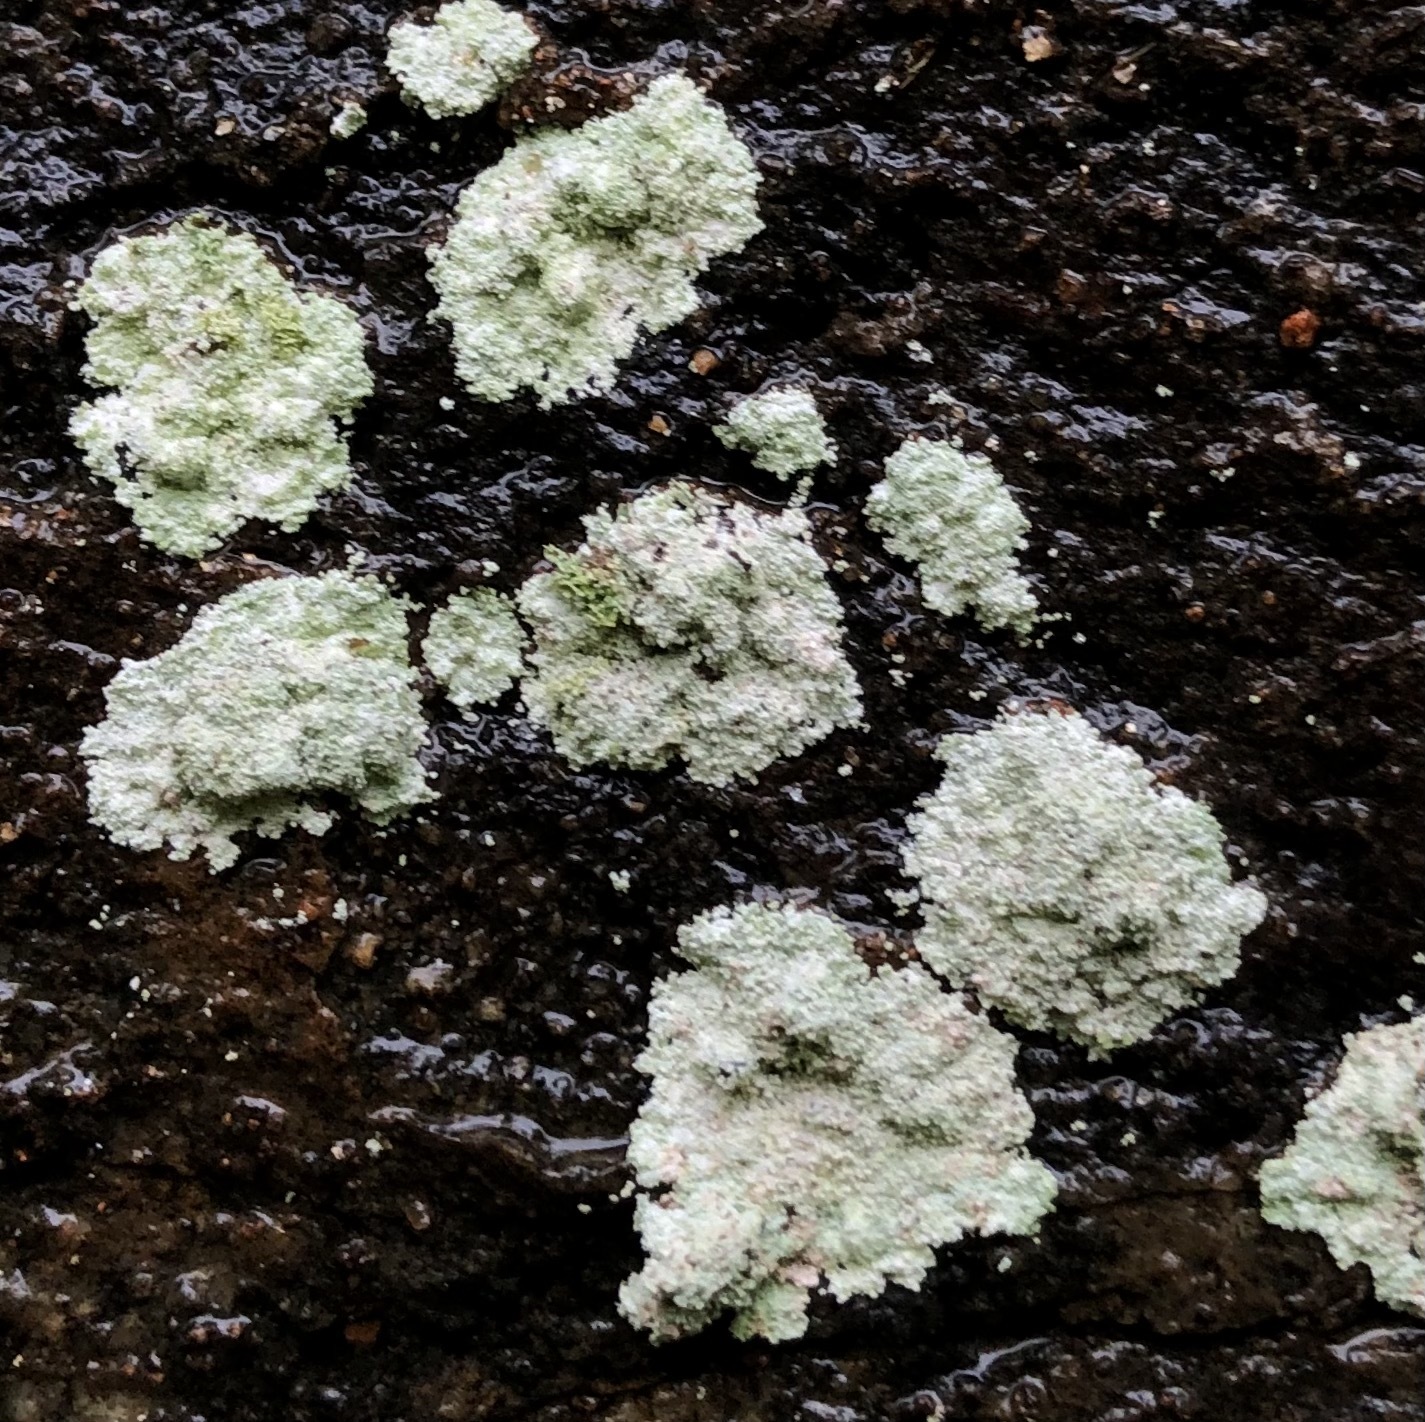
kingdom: Fungi
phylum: Ascomycota
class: Lecanoromycetes
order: Lecanorales
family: Stereocaulaceae
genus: Lepraria
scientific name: Lepraria lobificans
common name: Fluffy dust lichen
